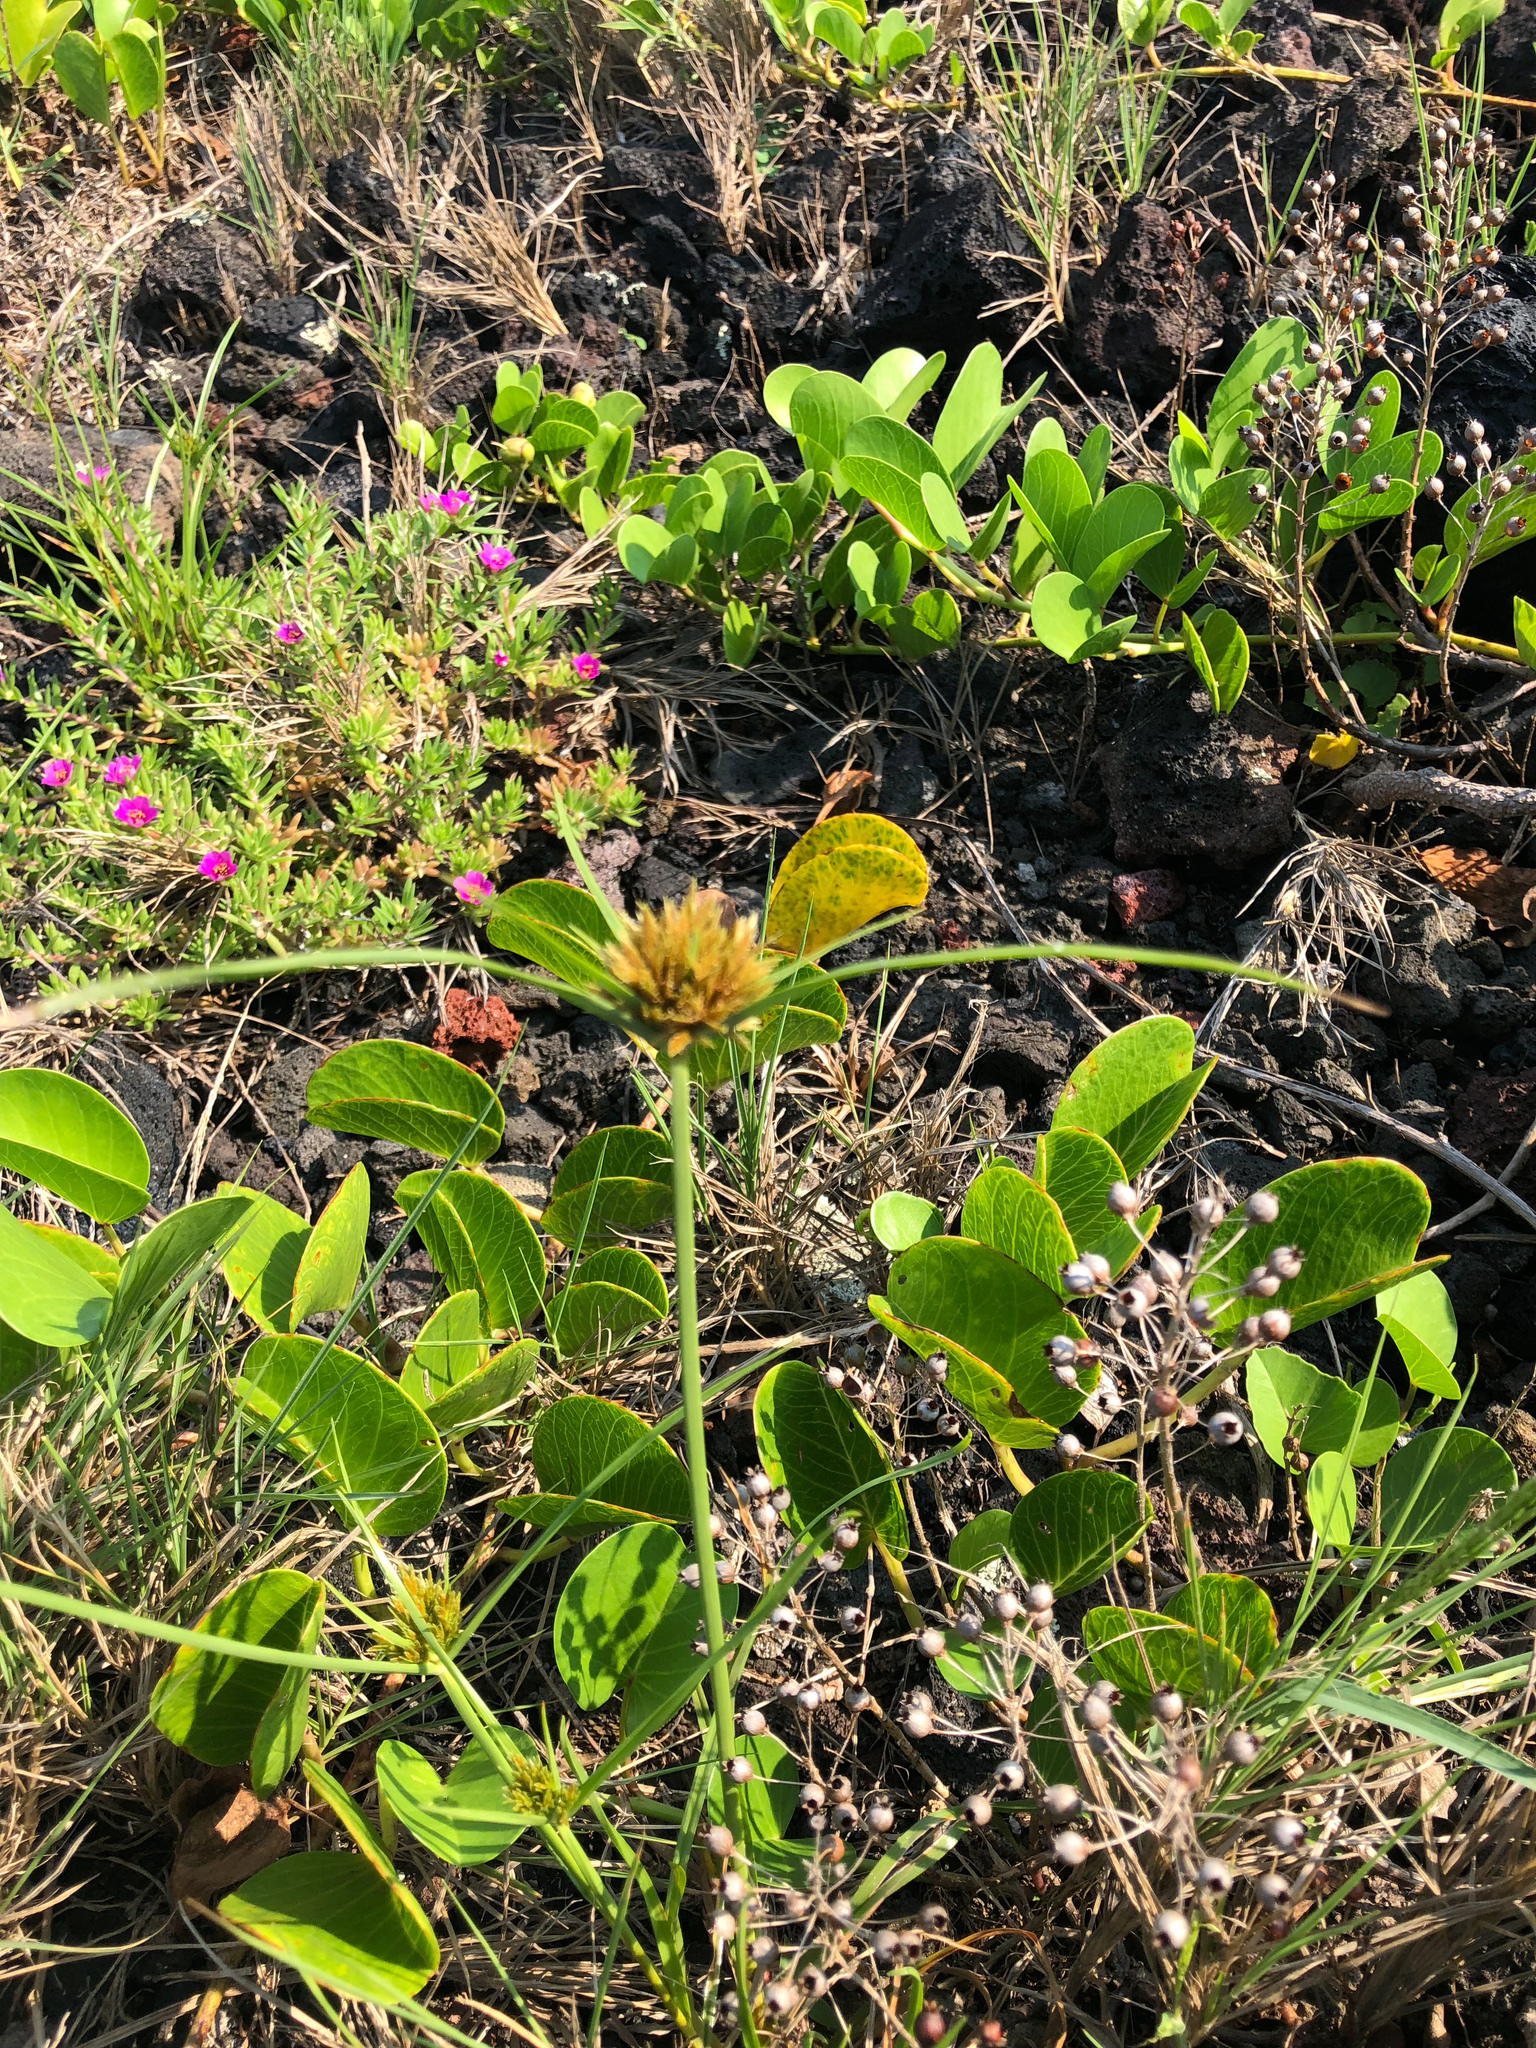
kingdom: Plantae
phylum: Tracheophyta
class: Liliopsida
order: Poales
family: Cyperaceae
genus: Cyperus
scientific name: Cyperus polystachyos
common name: Bunchy flat sedge
